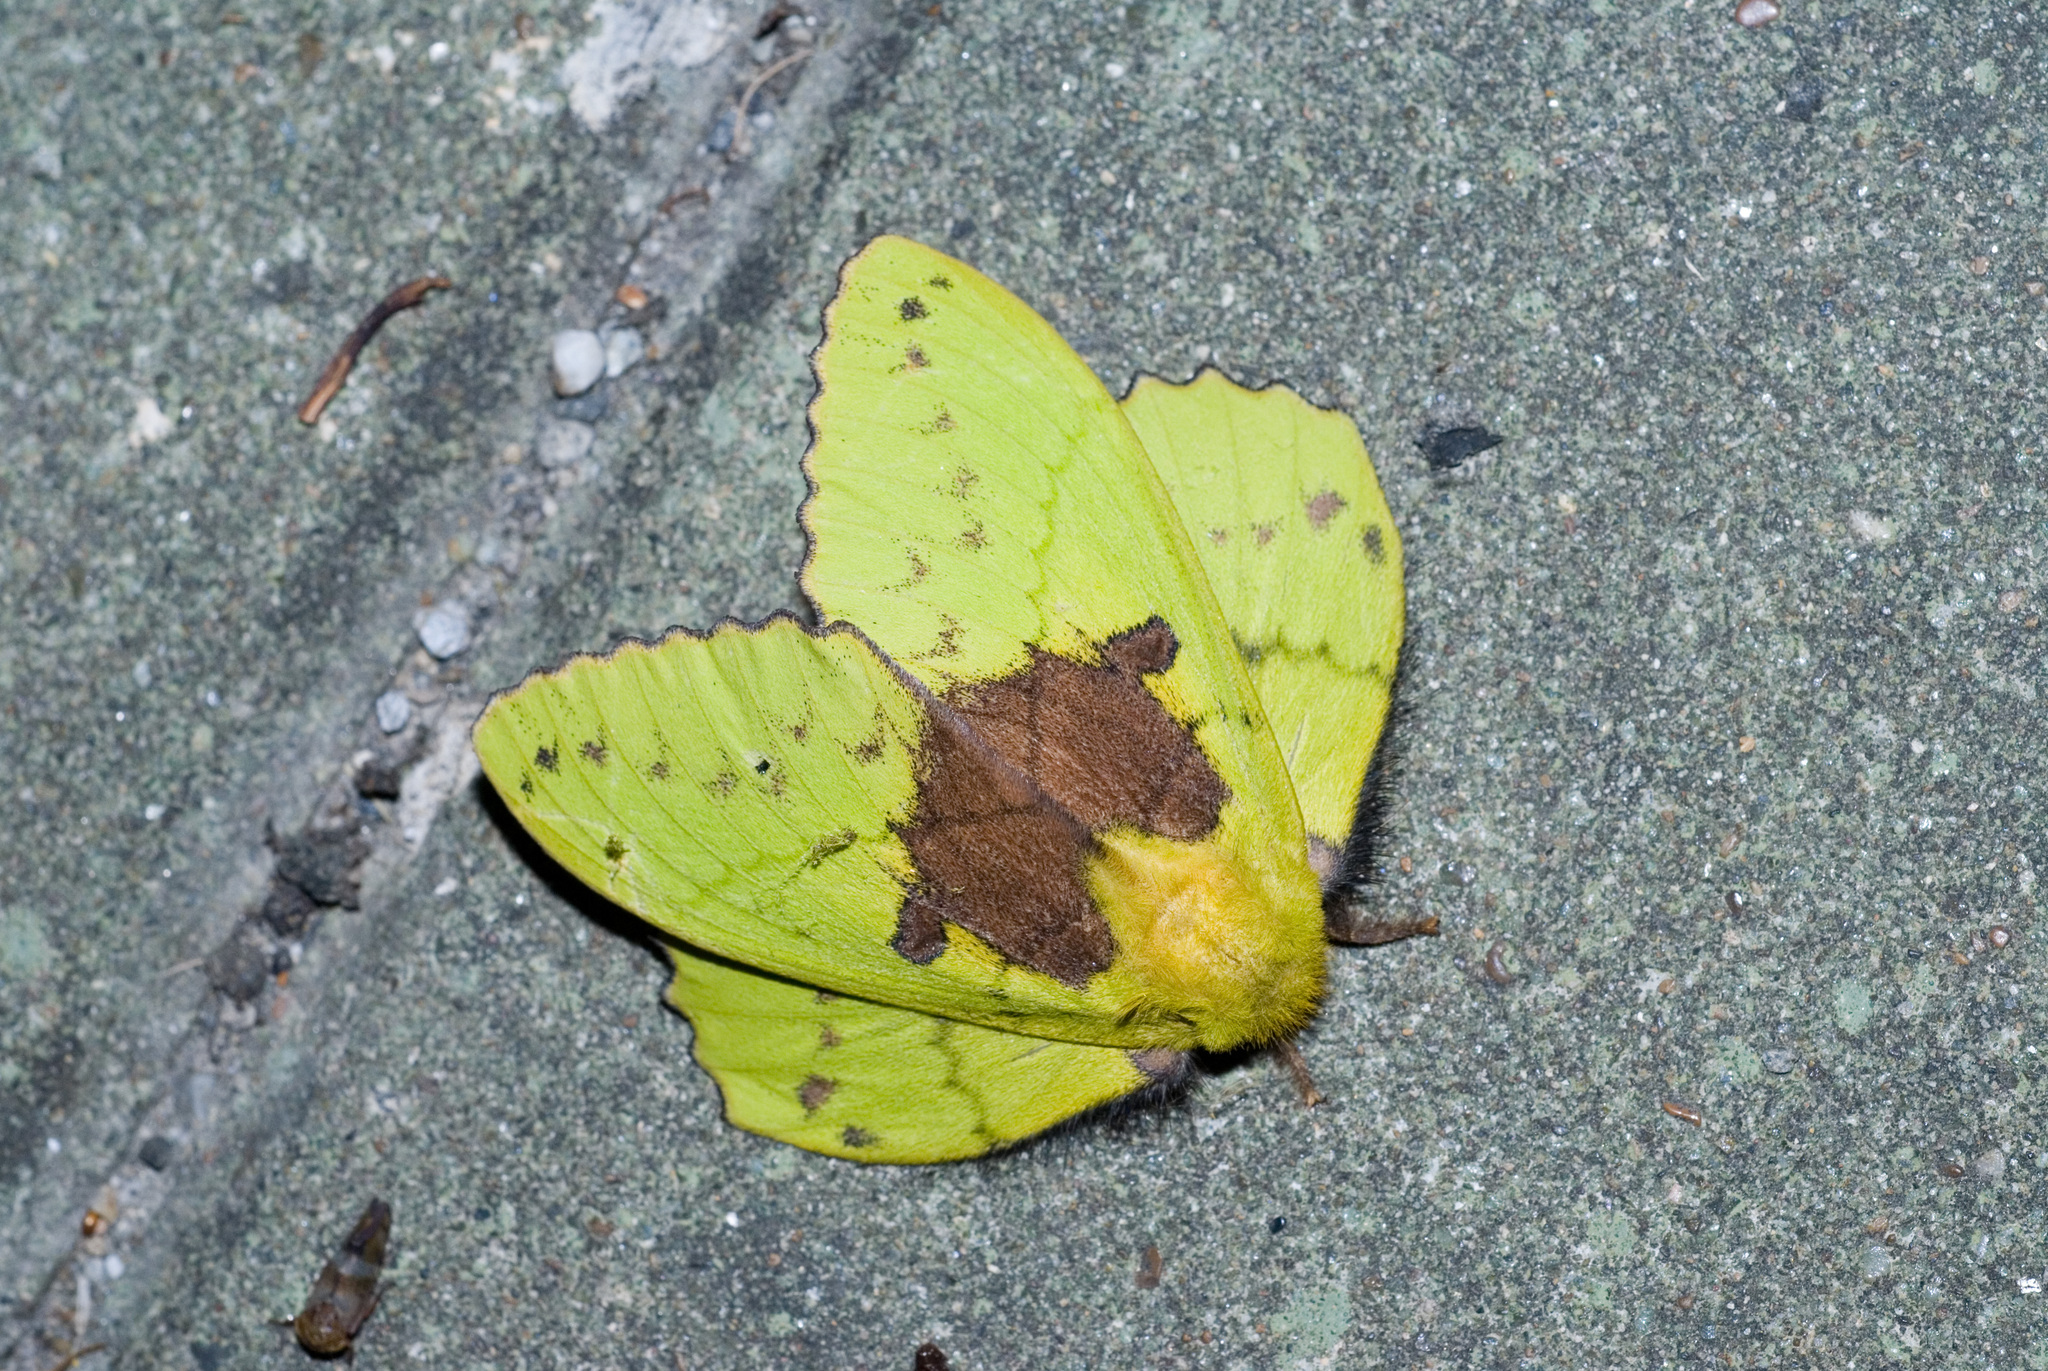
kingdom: Animalia
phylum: Arthropoda
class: Insecta
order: Lepidoptera
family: Lasiocampidae
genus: Trabala
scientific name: Trabala vishnou
